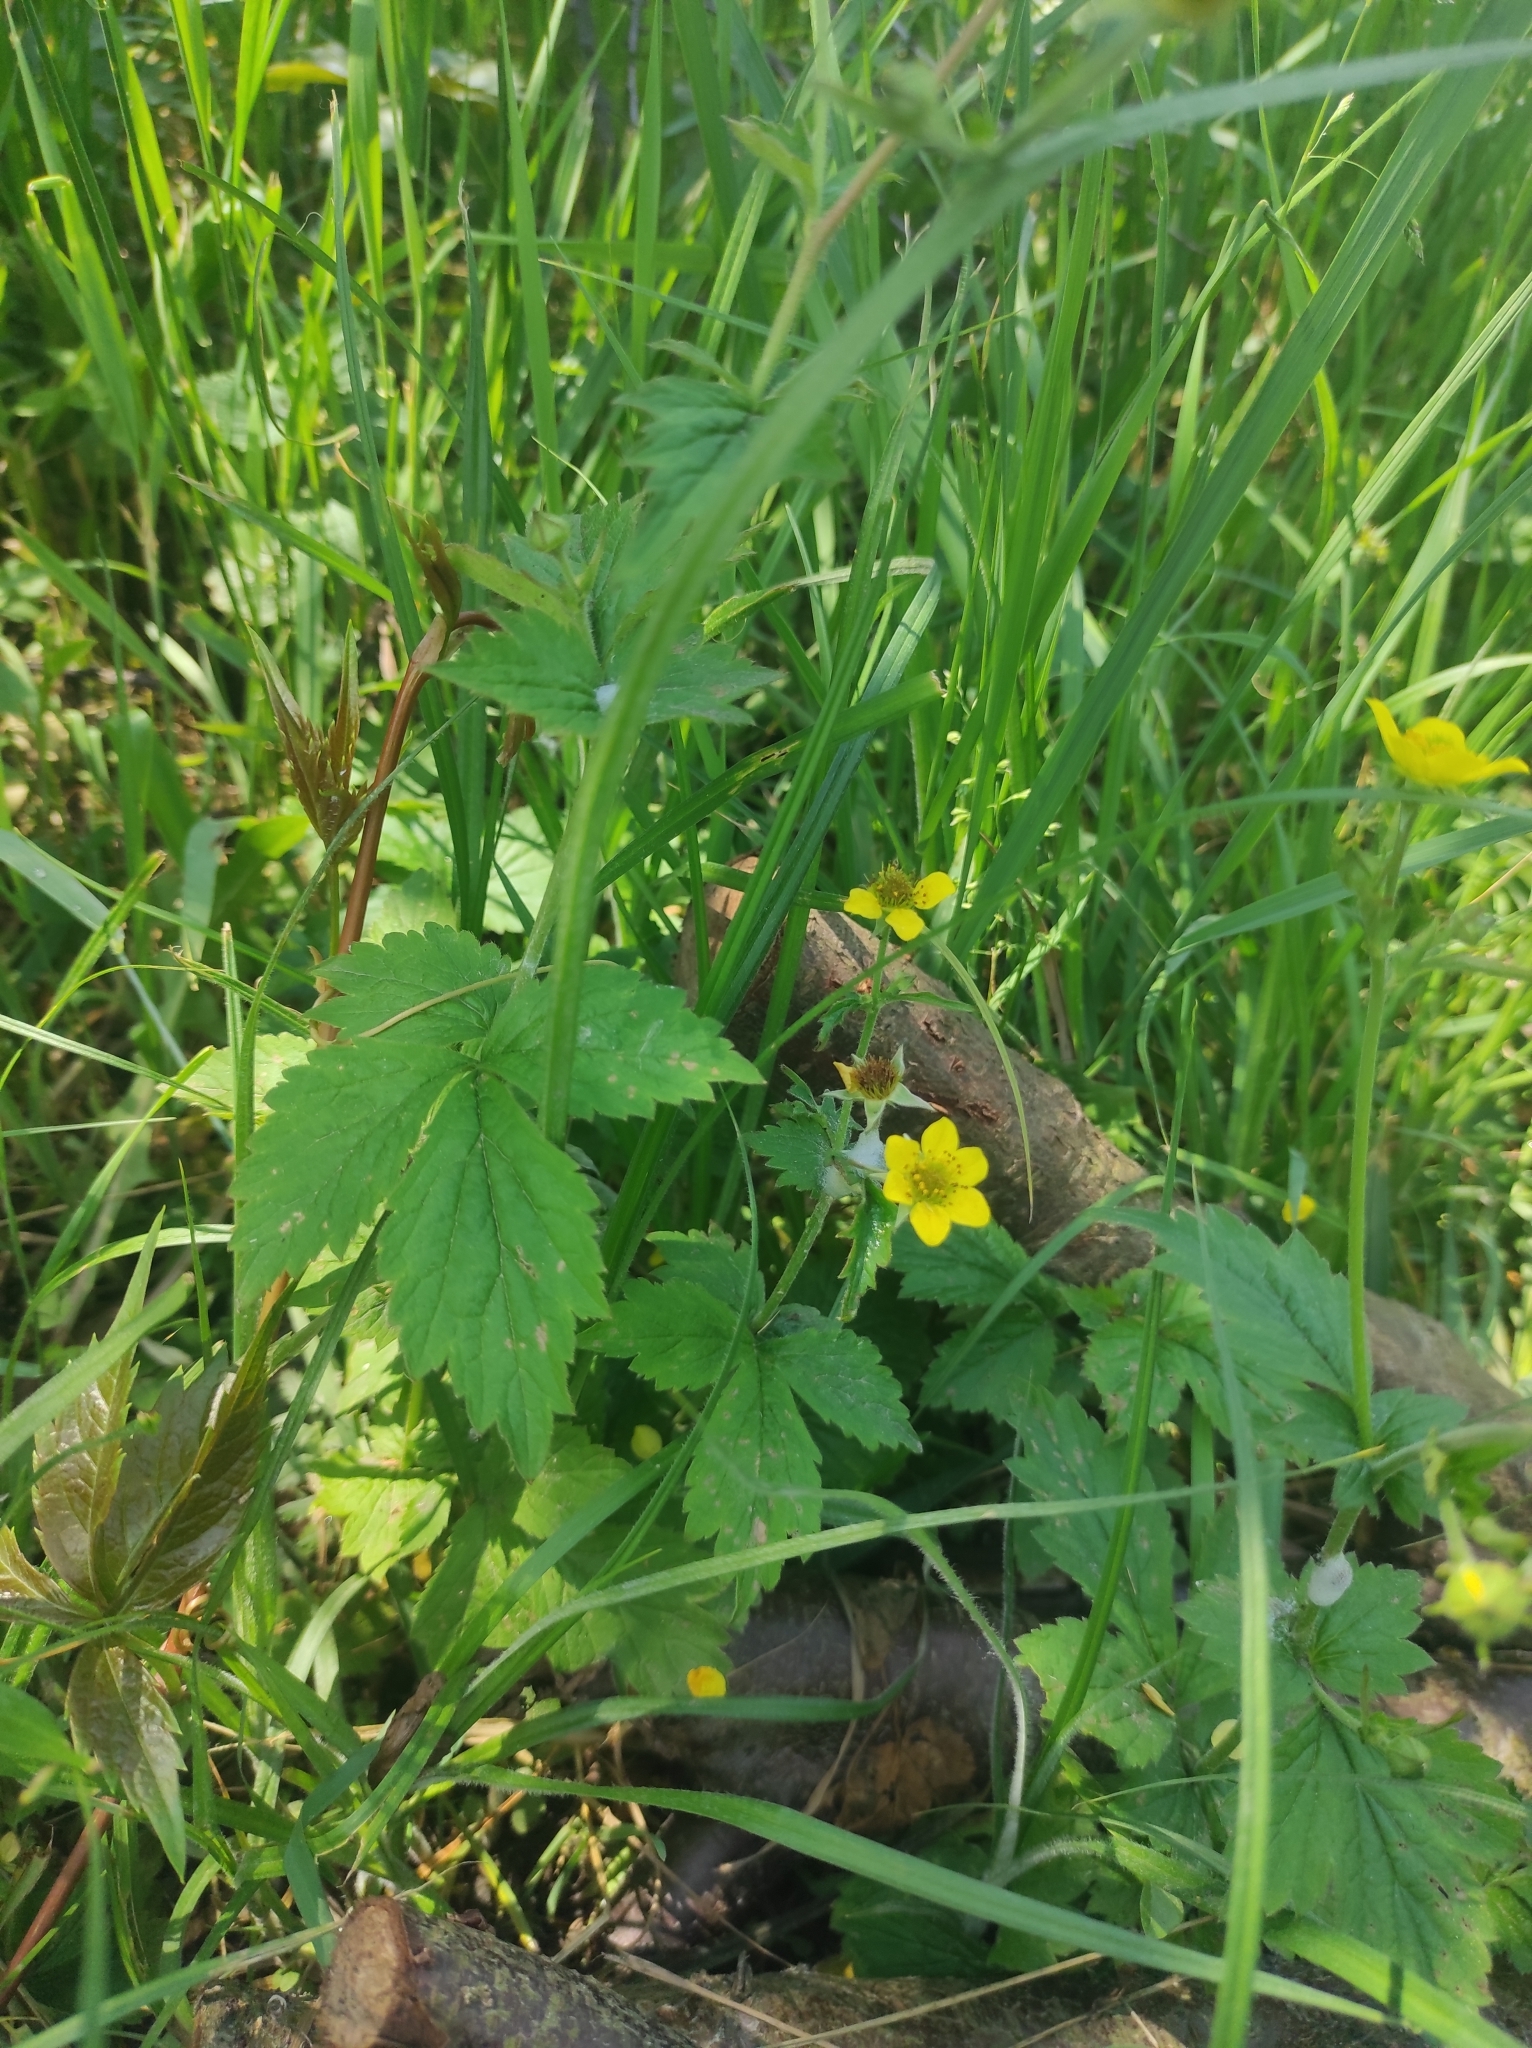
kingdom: Plantae
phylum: Tracheophyta
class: Magnoliopsida
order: Rosales
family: Rosaceae
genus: Geum
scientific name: Geum urbanum
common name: Wood avens
